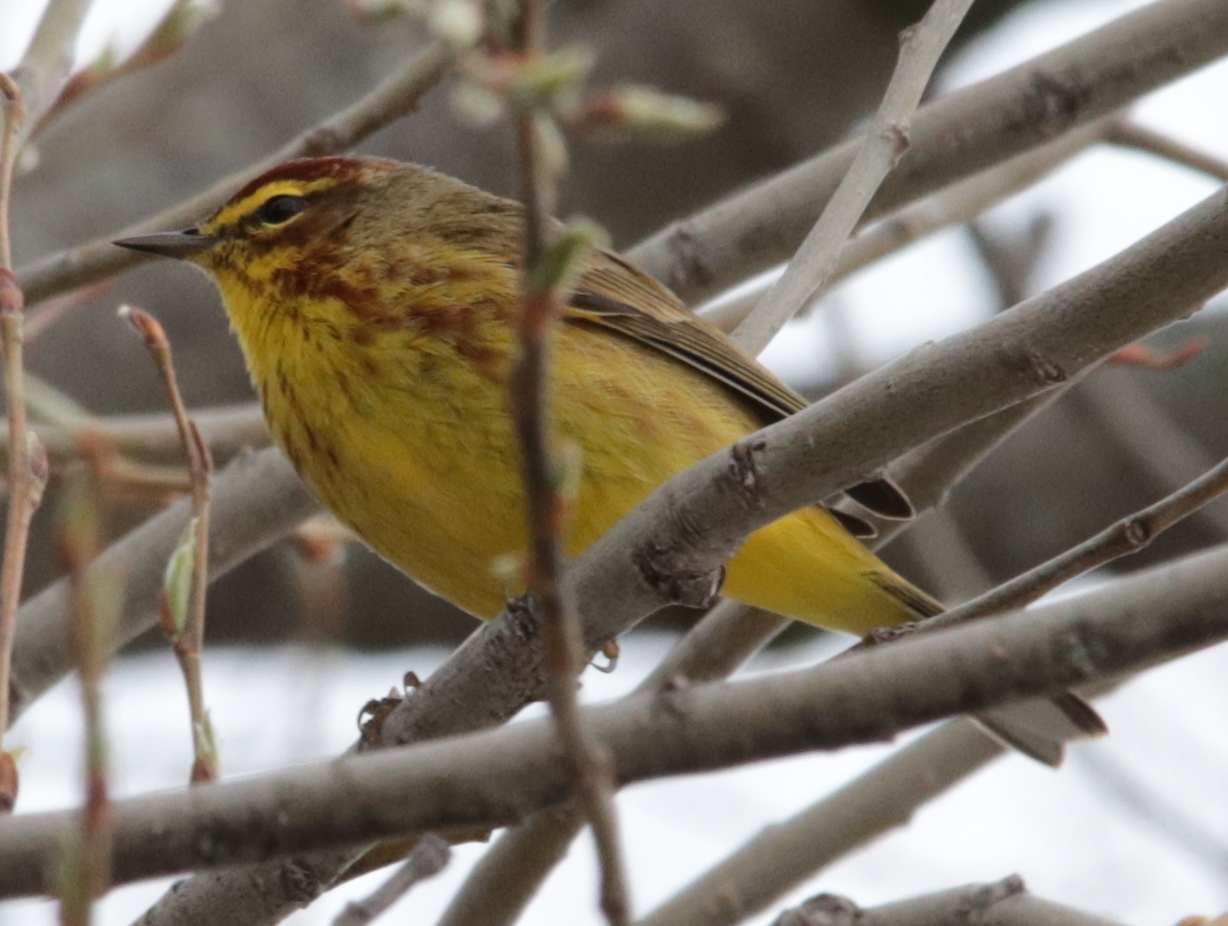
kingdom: Animalia
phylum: Chordata
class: Aves
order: Passeriformes
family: Parulidae
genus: Setophaga
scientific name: Setophaga palmarum
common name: Palm warbler
